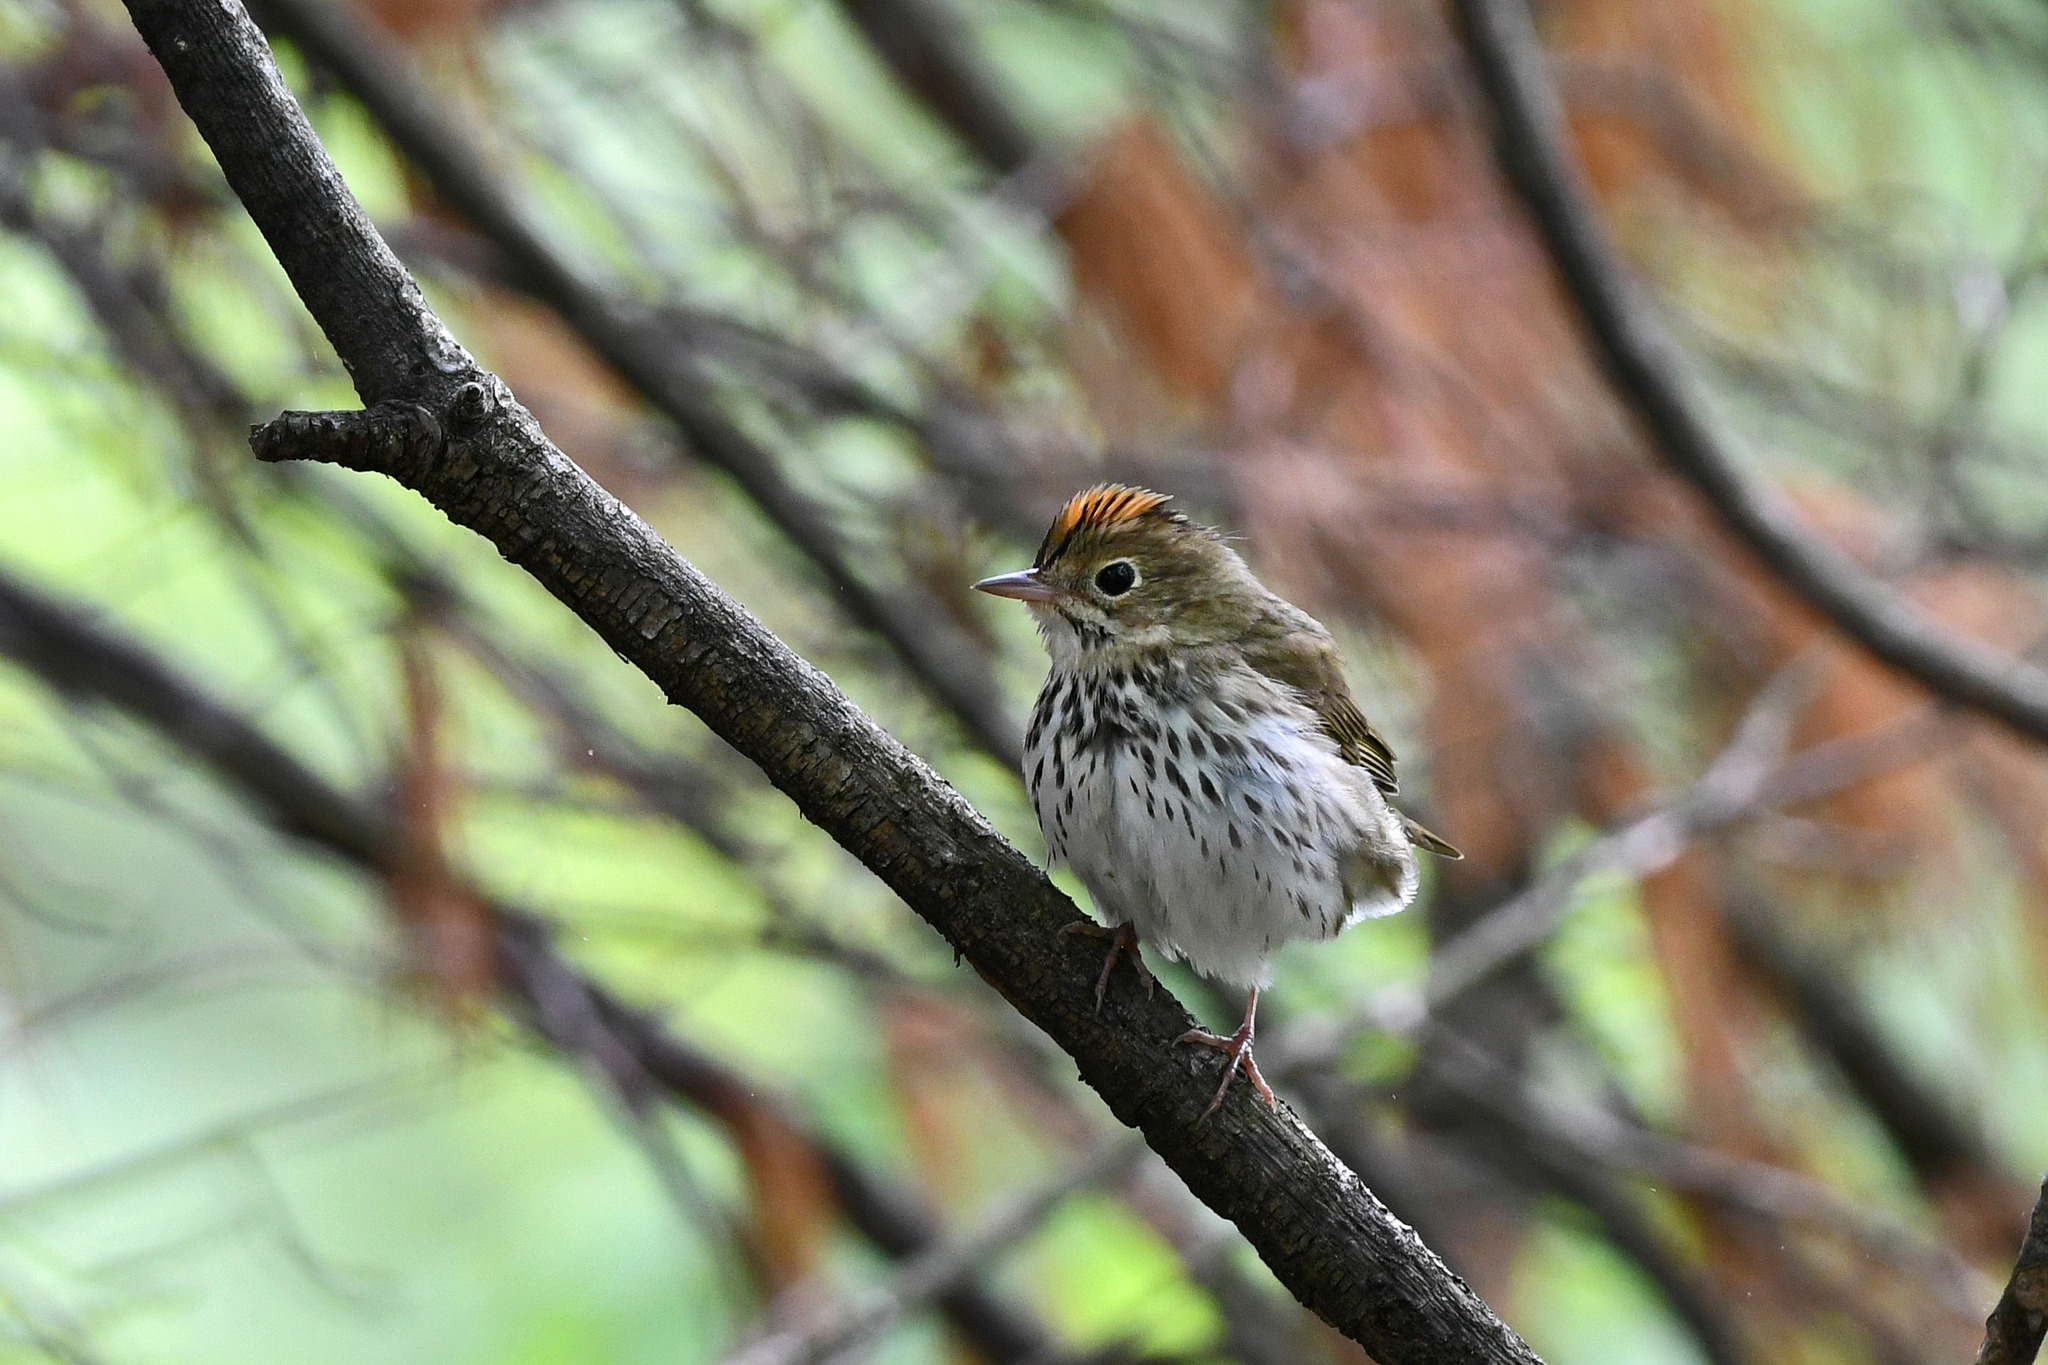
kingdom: Animalia
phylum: Chordata
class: Aves
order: Passeriformes
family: Parulidae
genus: Seiurus
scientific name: Seiurus aurocapilla
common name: Ovenbird
